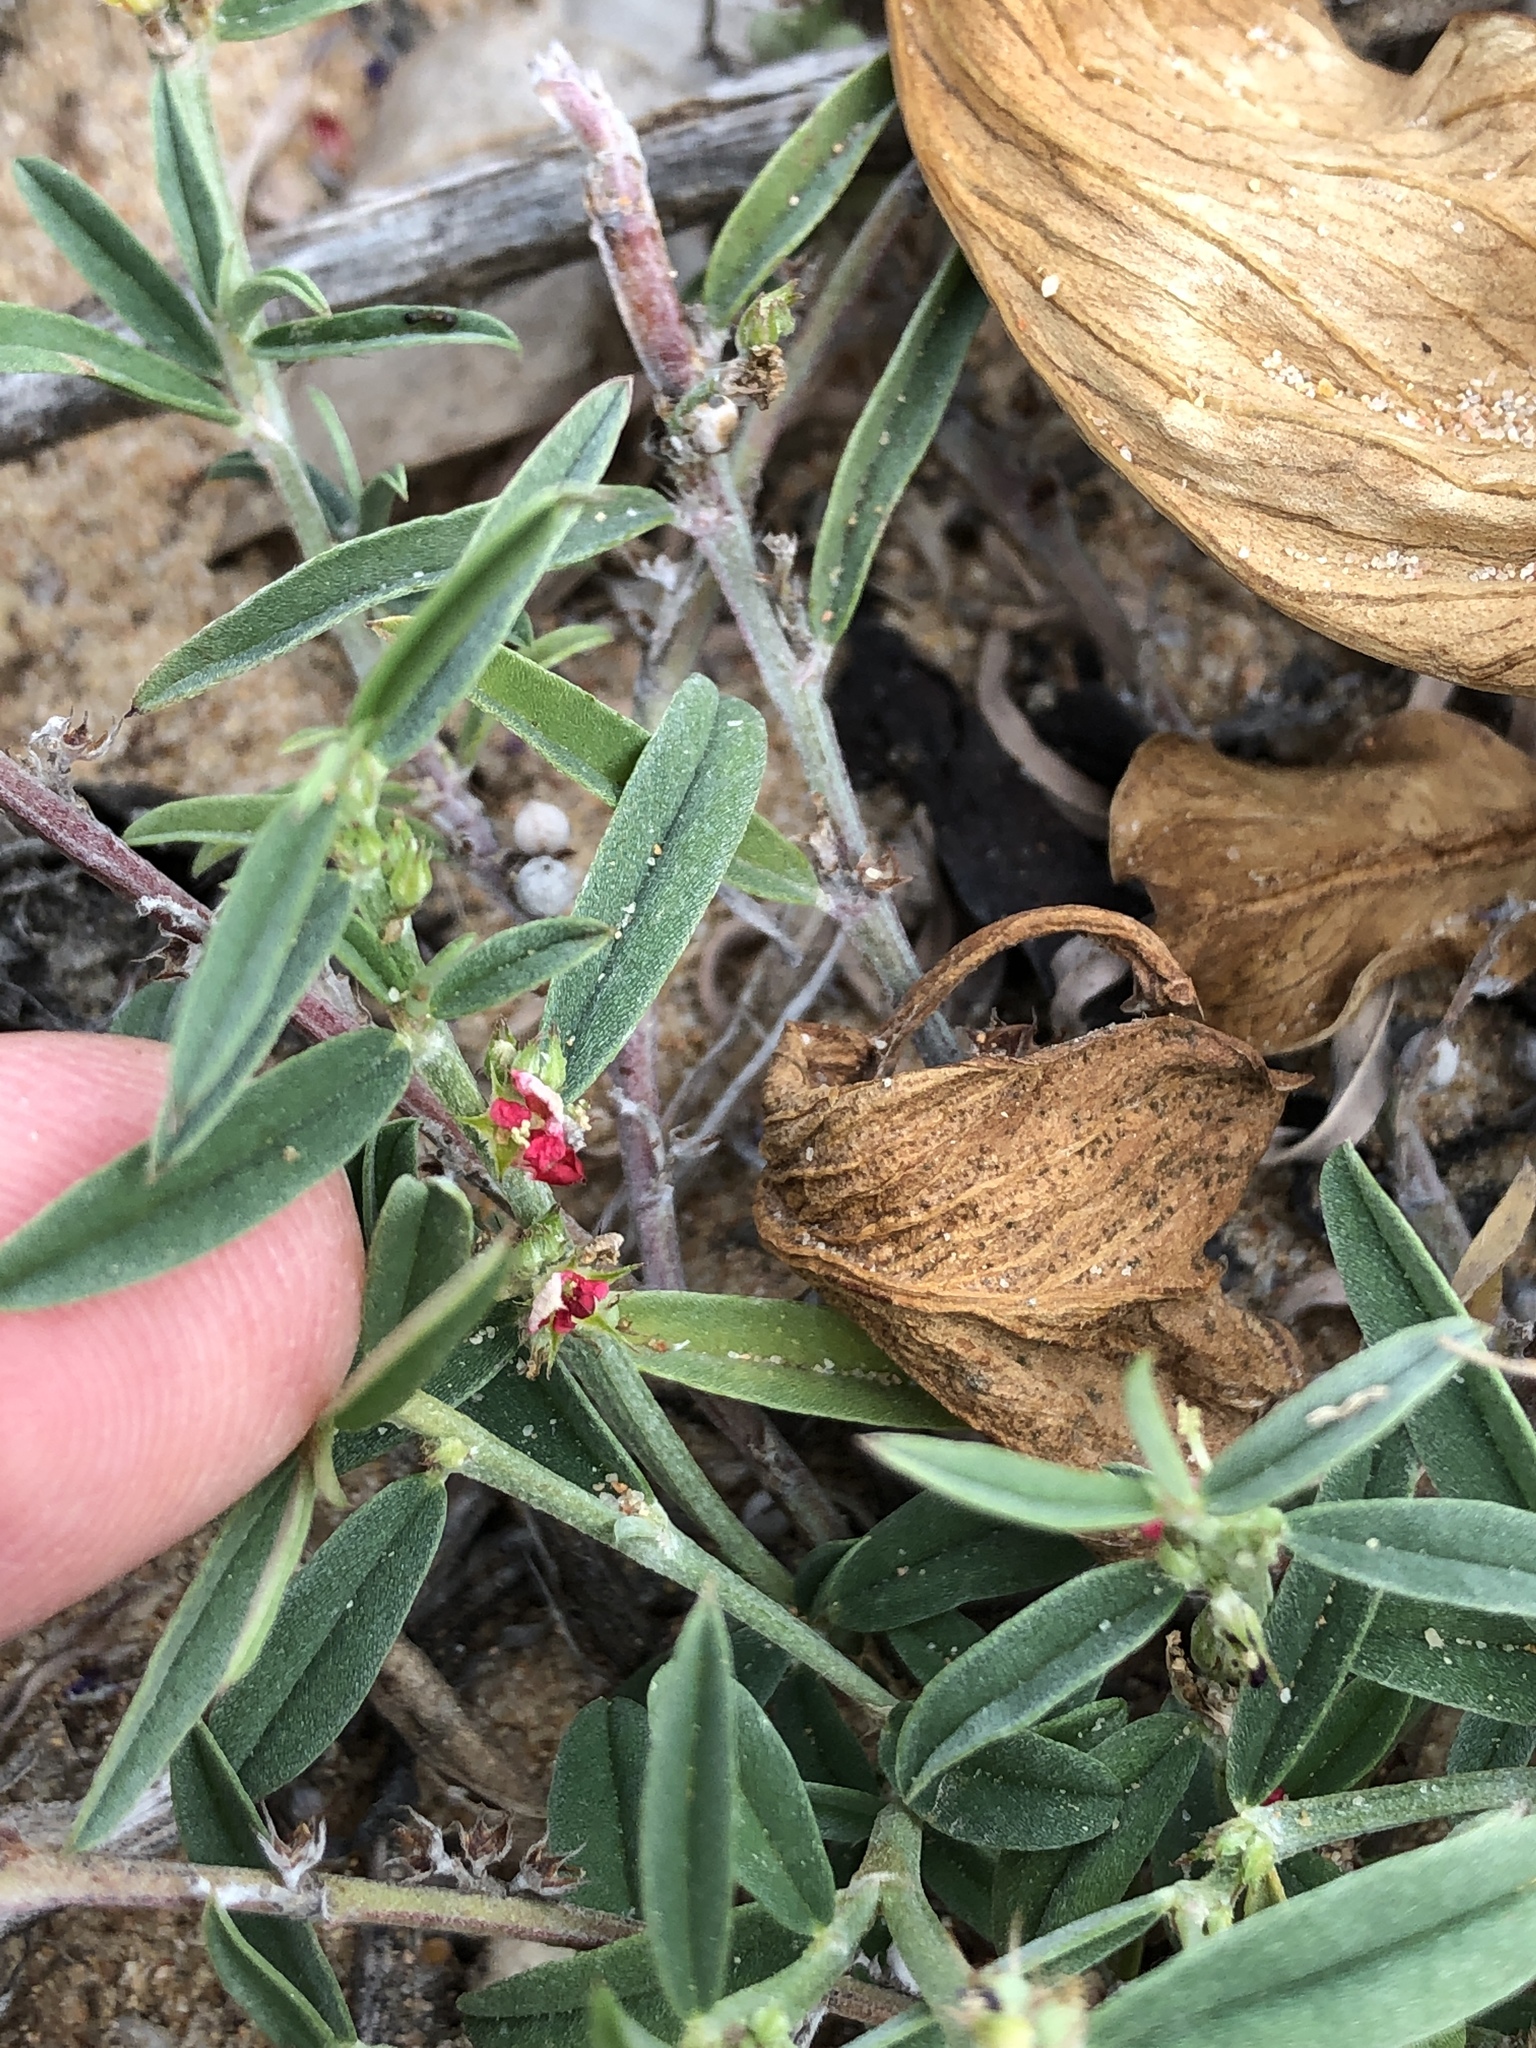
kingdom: Plantae
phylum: Tracheophyta
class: Magnoliopsida
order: Fabales
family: Fabaceae
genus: Indigofera
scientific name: Indigofera linifolia
